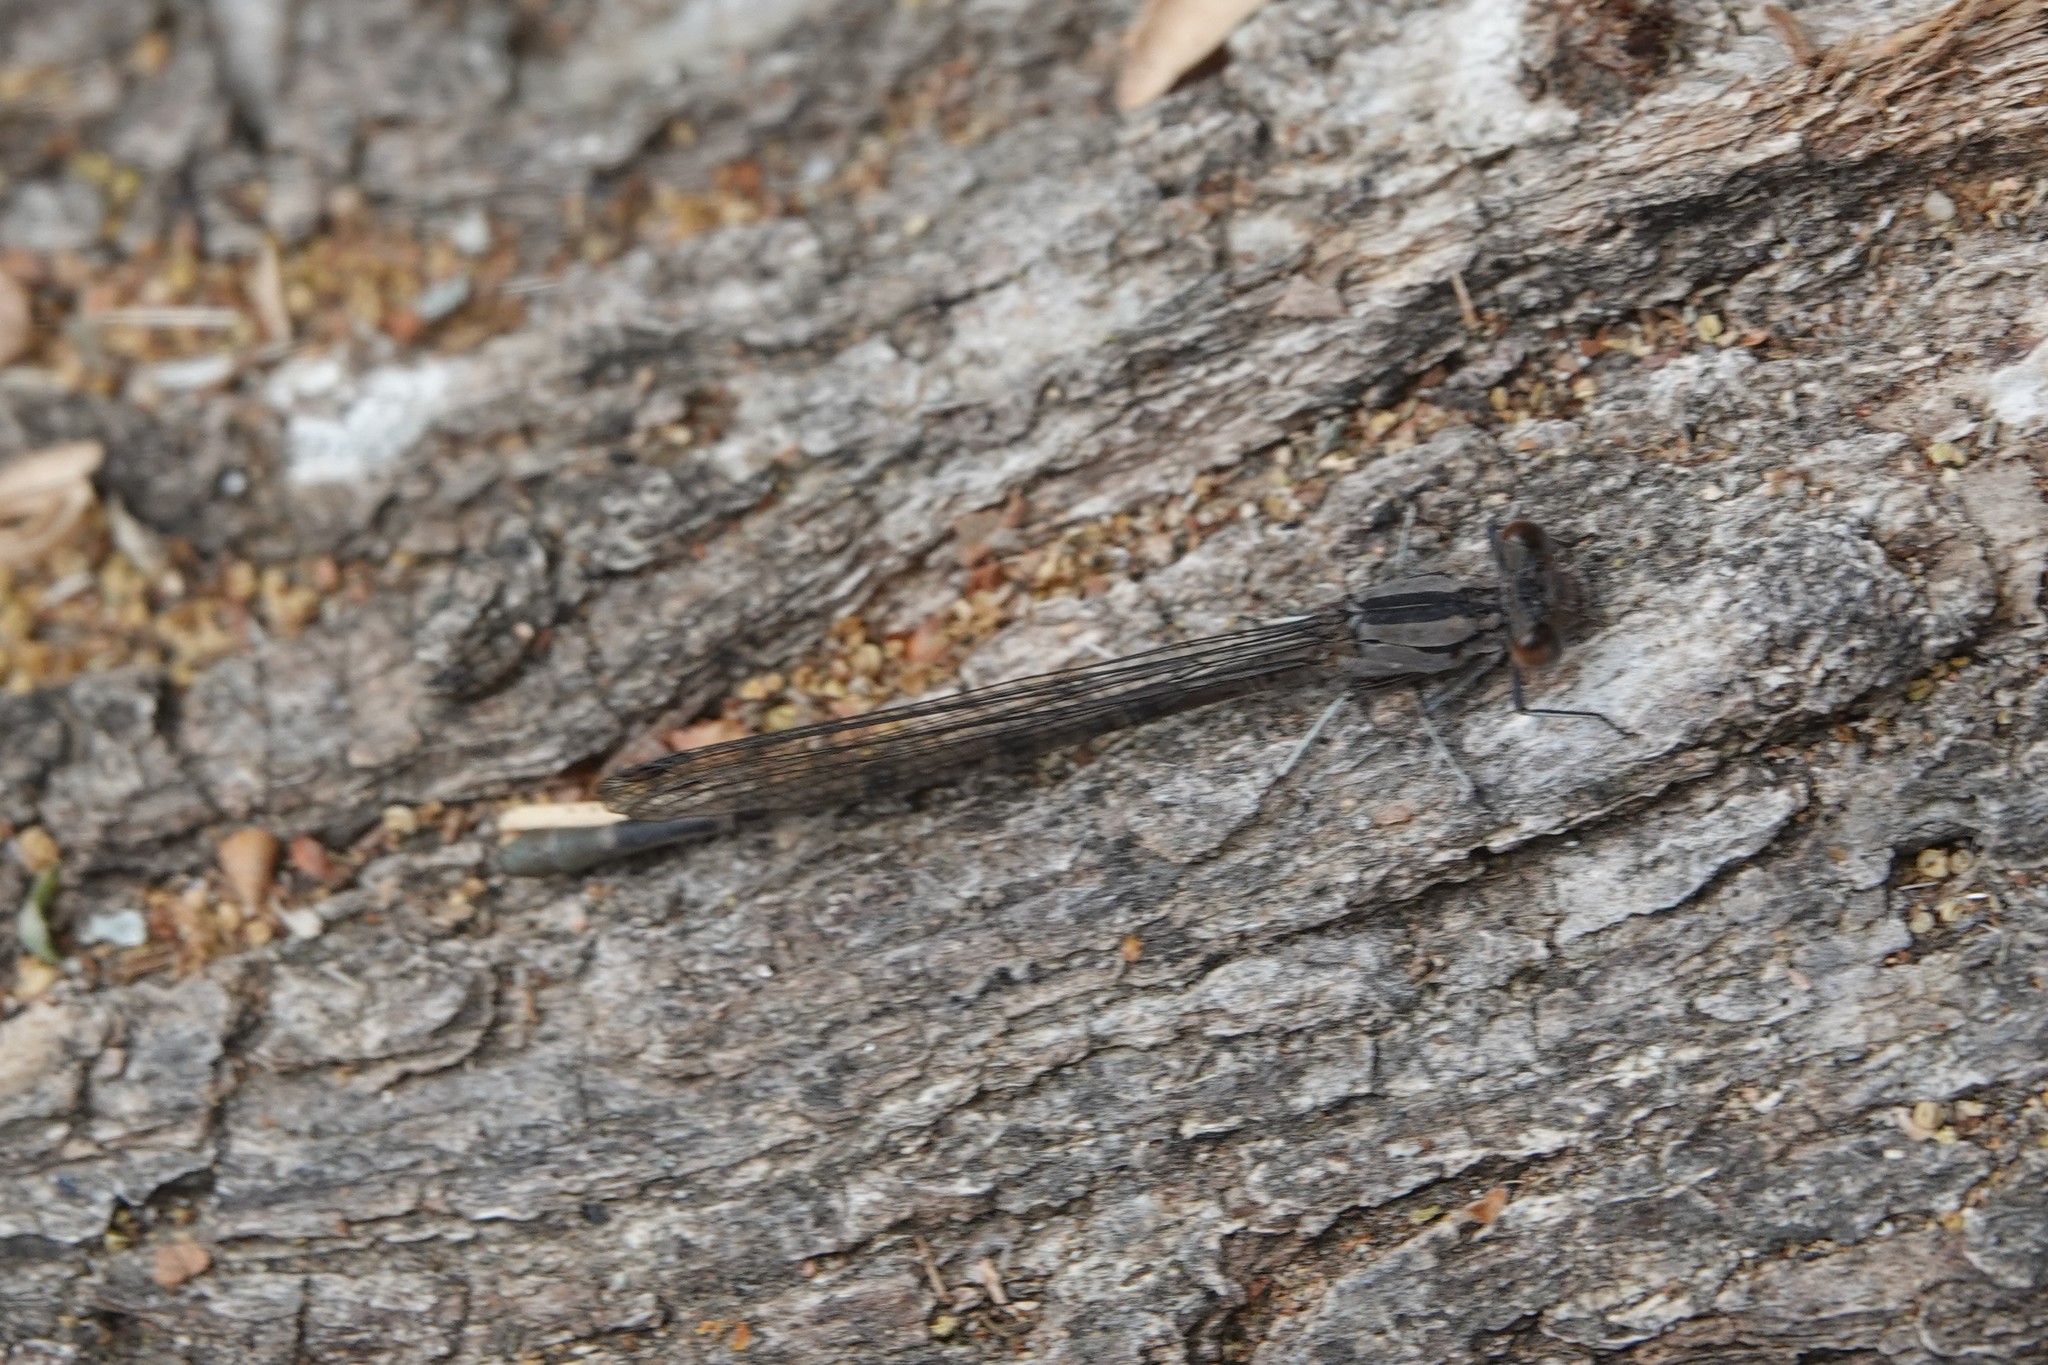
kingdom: Animalia
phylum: Arthropoda
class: Insecta
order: Odonata
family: Coenagrionidae
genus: Argia
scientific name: Argia vivida
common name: Vivid dancer
